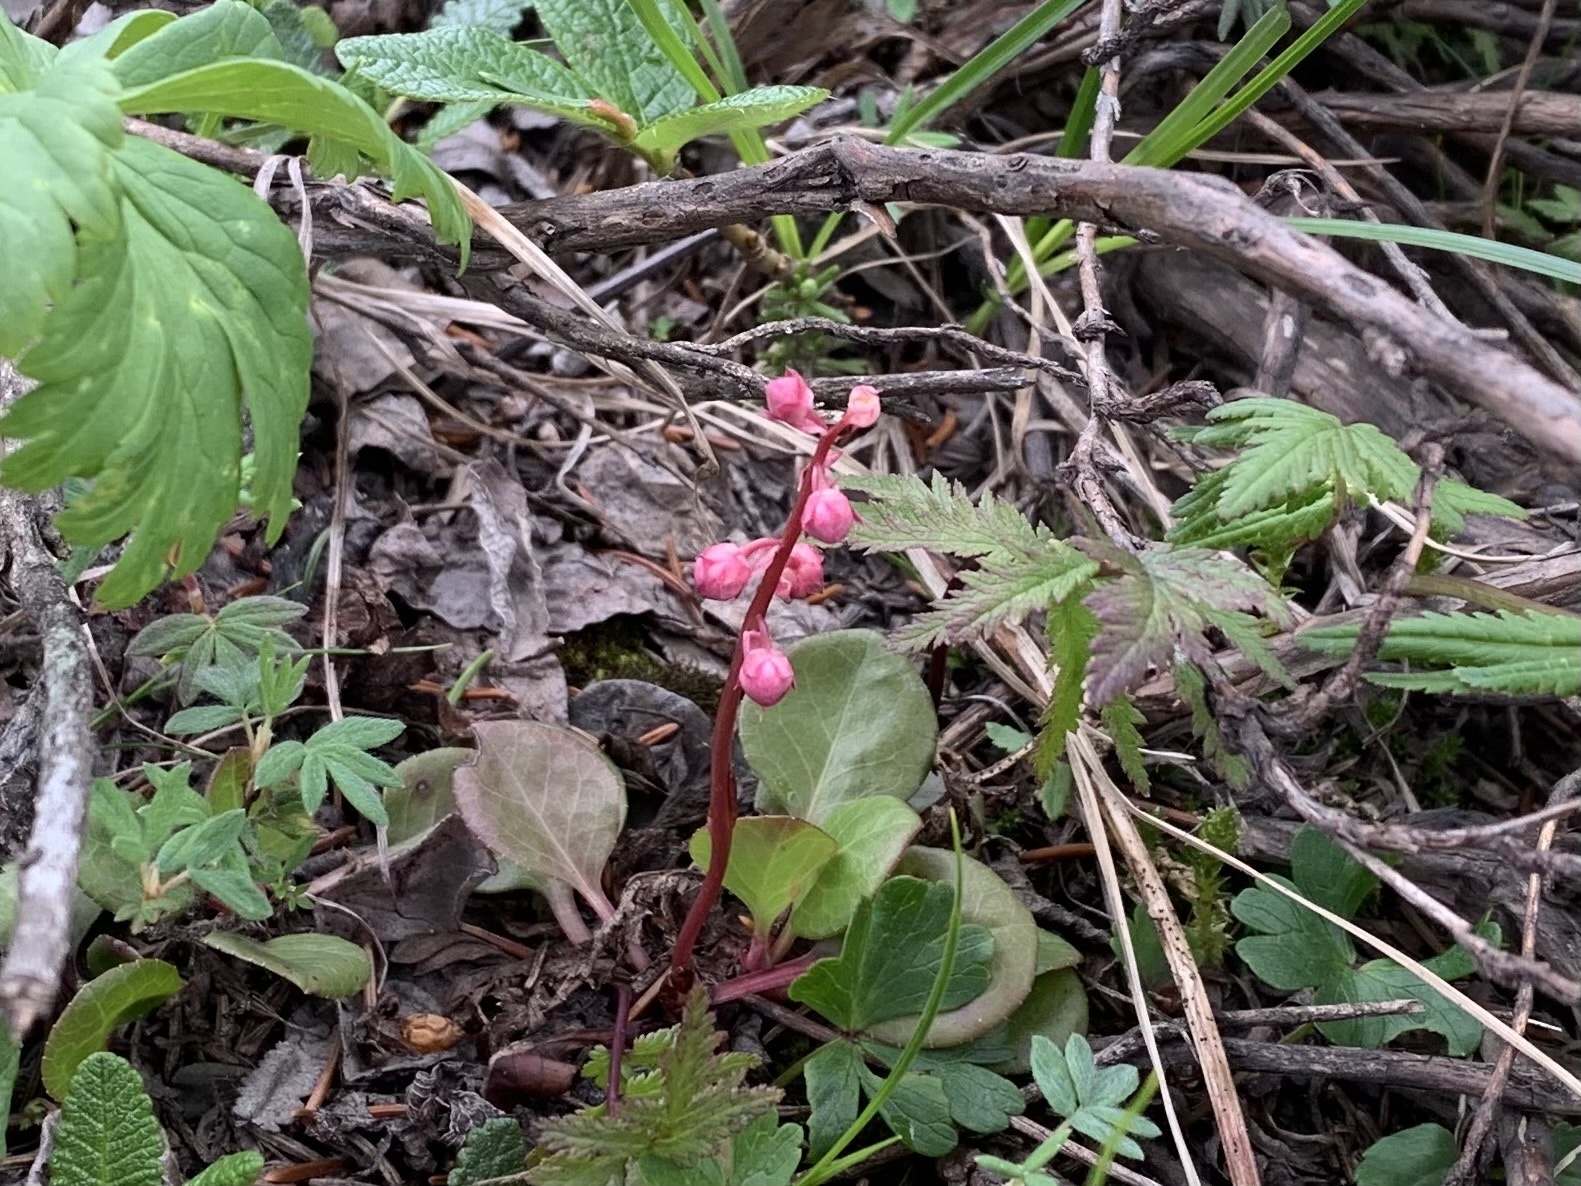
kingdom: Plantae
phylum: Tracheophyta
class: Magnoliopsida
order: Ericales
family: Ericaceae
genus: Pyrola
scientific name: Pyrola asarifolia
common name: Bog wintergreen
